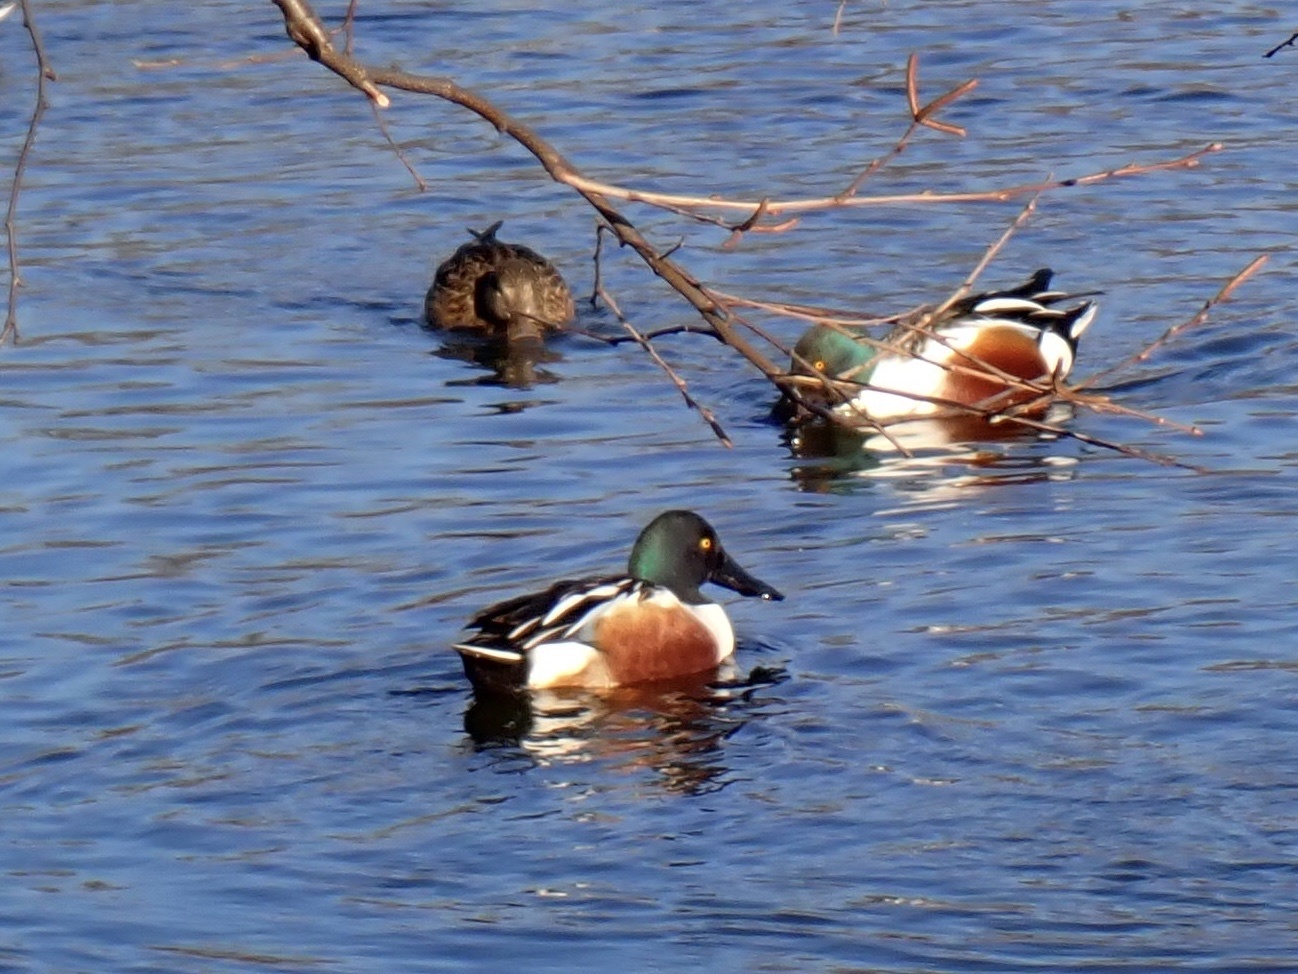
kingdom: Animalia
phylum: Chordata
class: Aves
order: Anseriformes
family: Anatidae
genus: Spatula
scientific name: Spatula clypeata
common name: Northern shoveler
